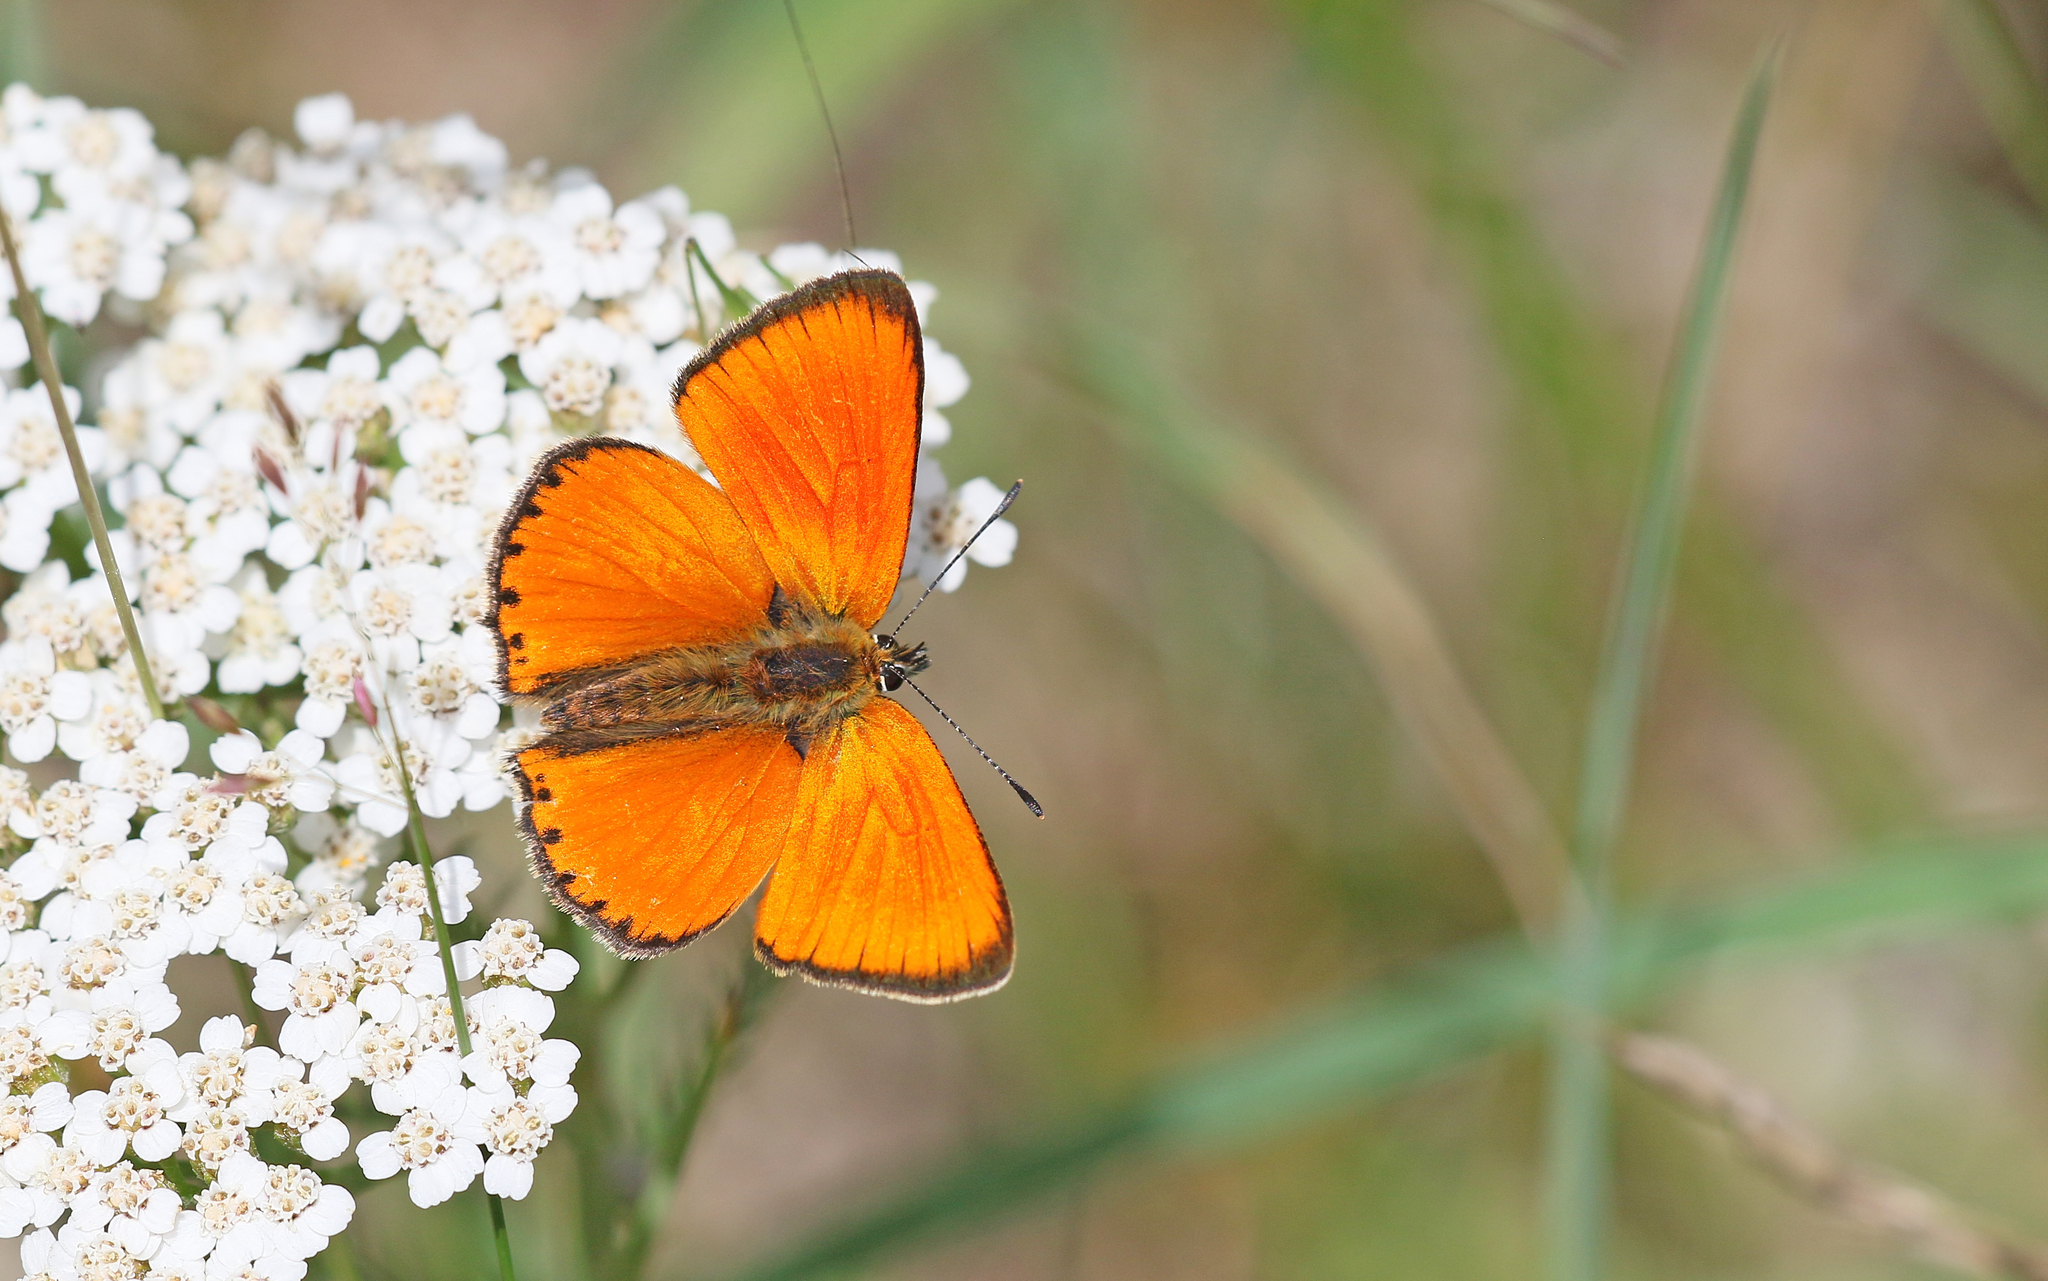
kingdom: Animalia
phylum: Arthropoda
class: Insecta
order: Lepidoptera
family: Lycaenidae
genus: Lycaena
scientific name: Lycaena virgaureae
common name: Scarce copper
